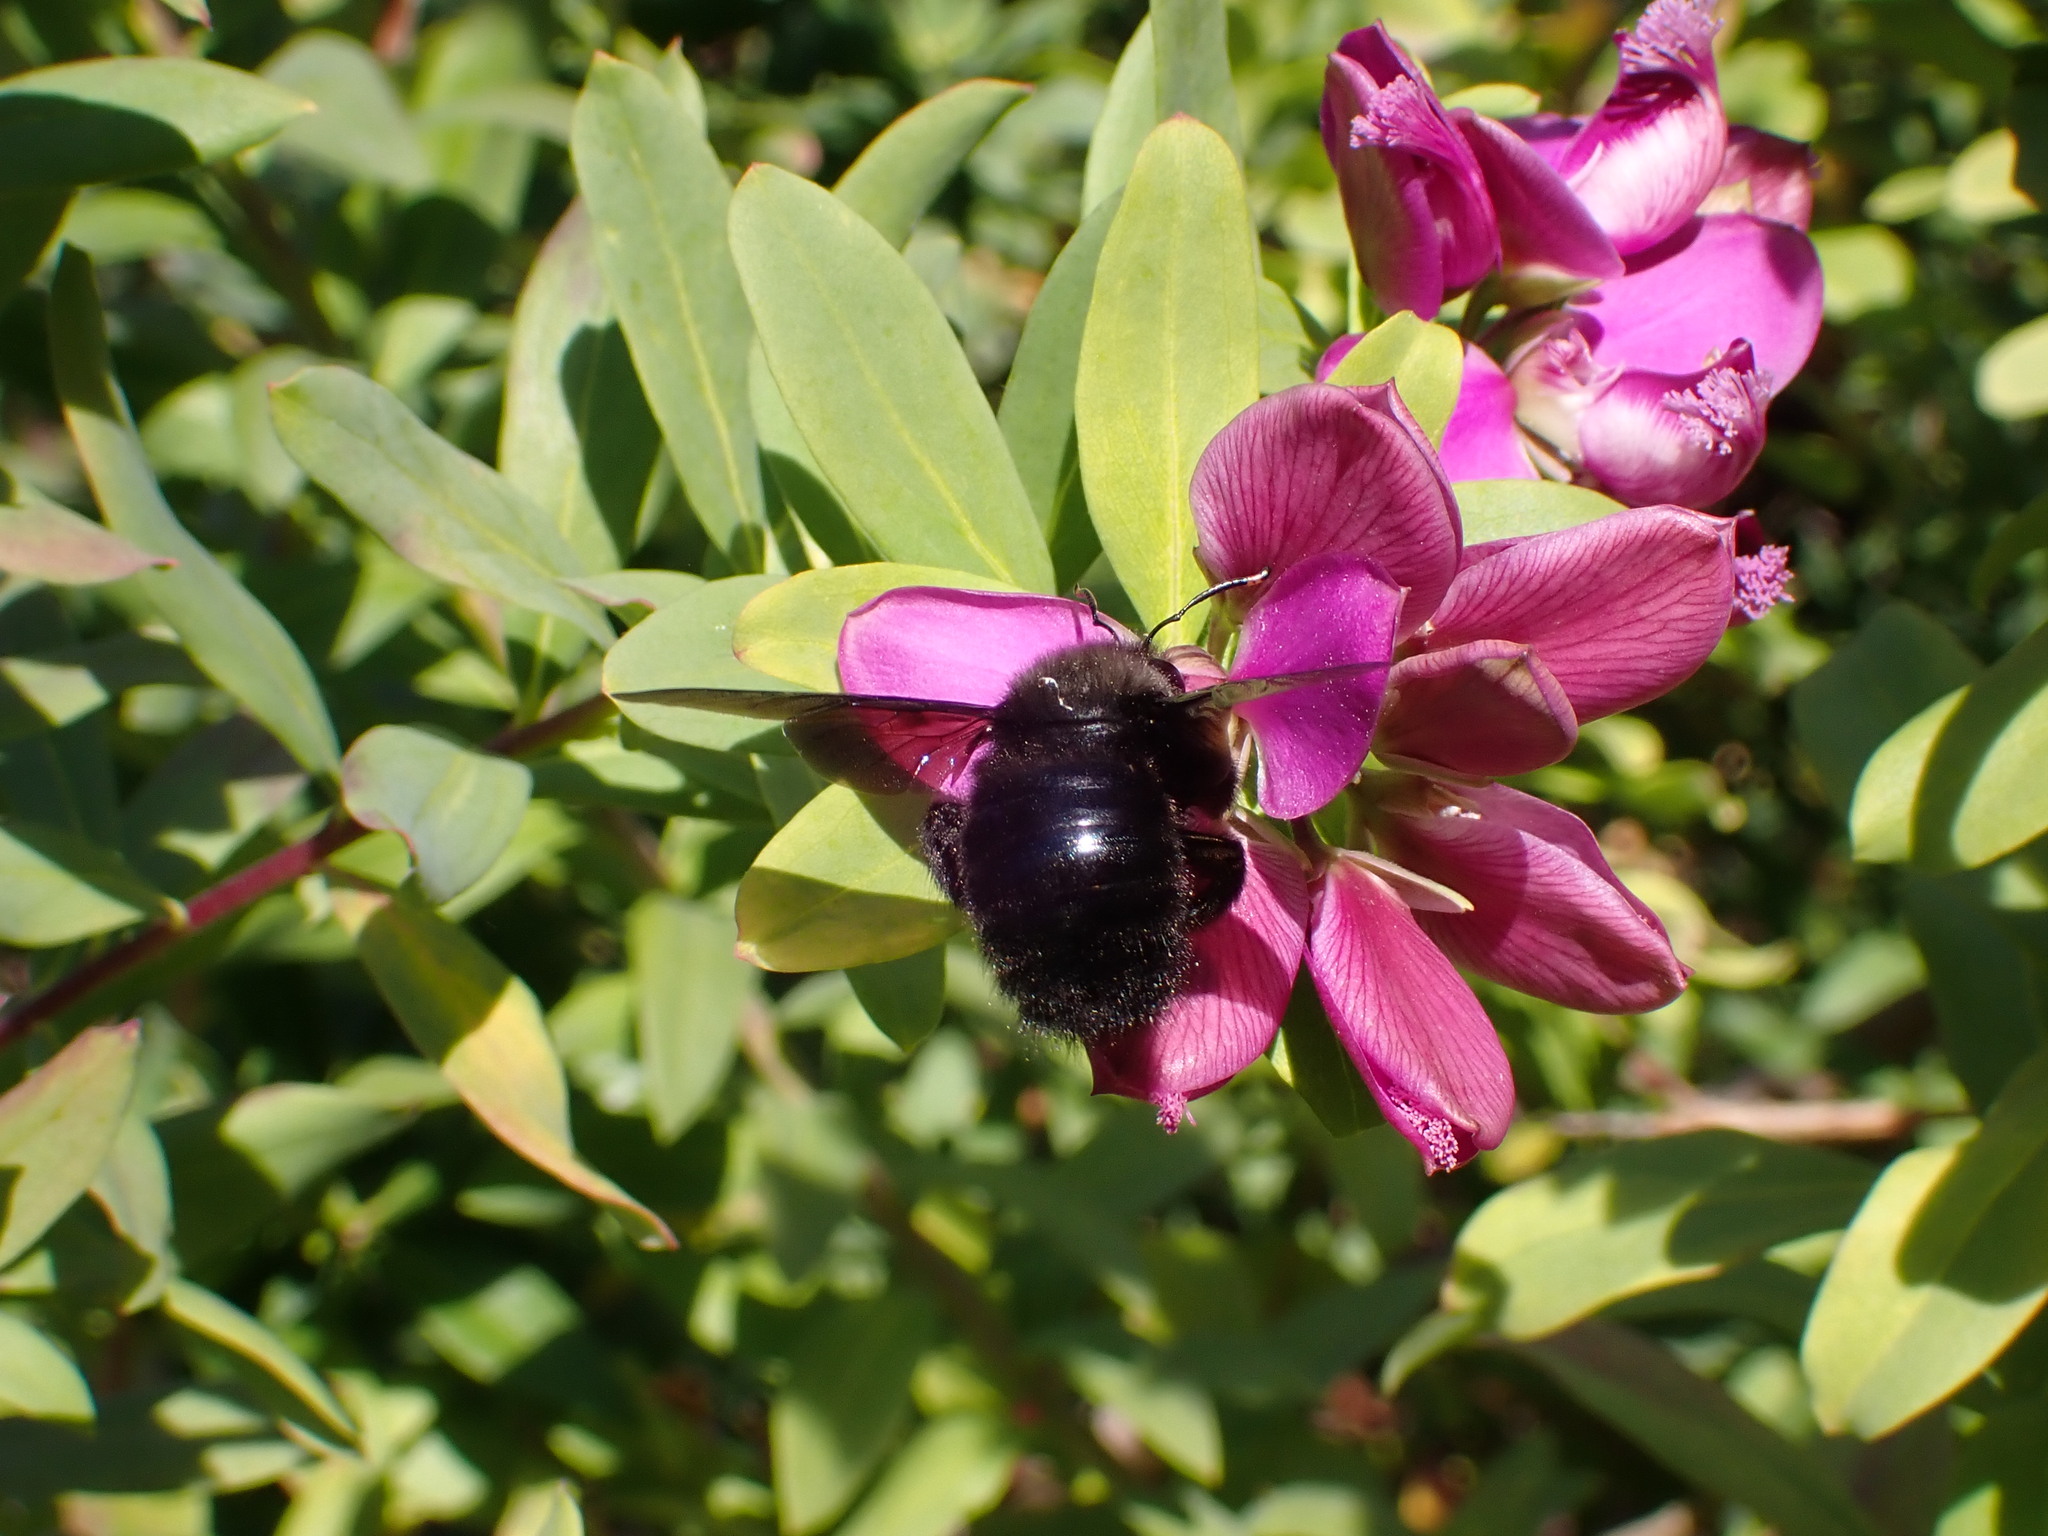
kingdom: Animalia
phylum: Arthropoda
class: Insecta
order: Hymenoptera
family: Apidae
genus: Xylocopa
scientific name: Xylocopa violacea
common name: Violet carpenter bee
